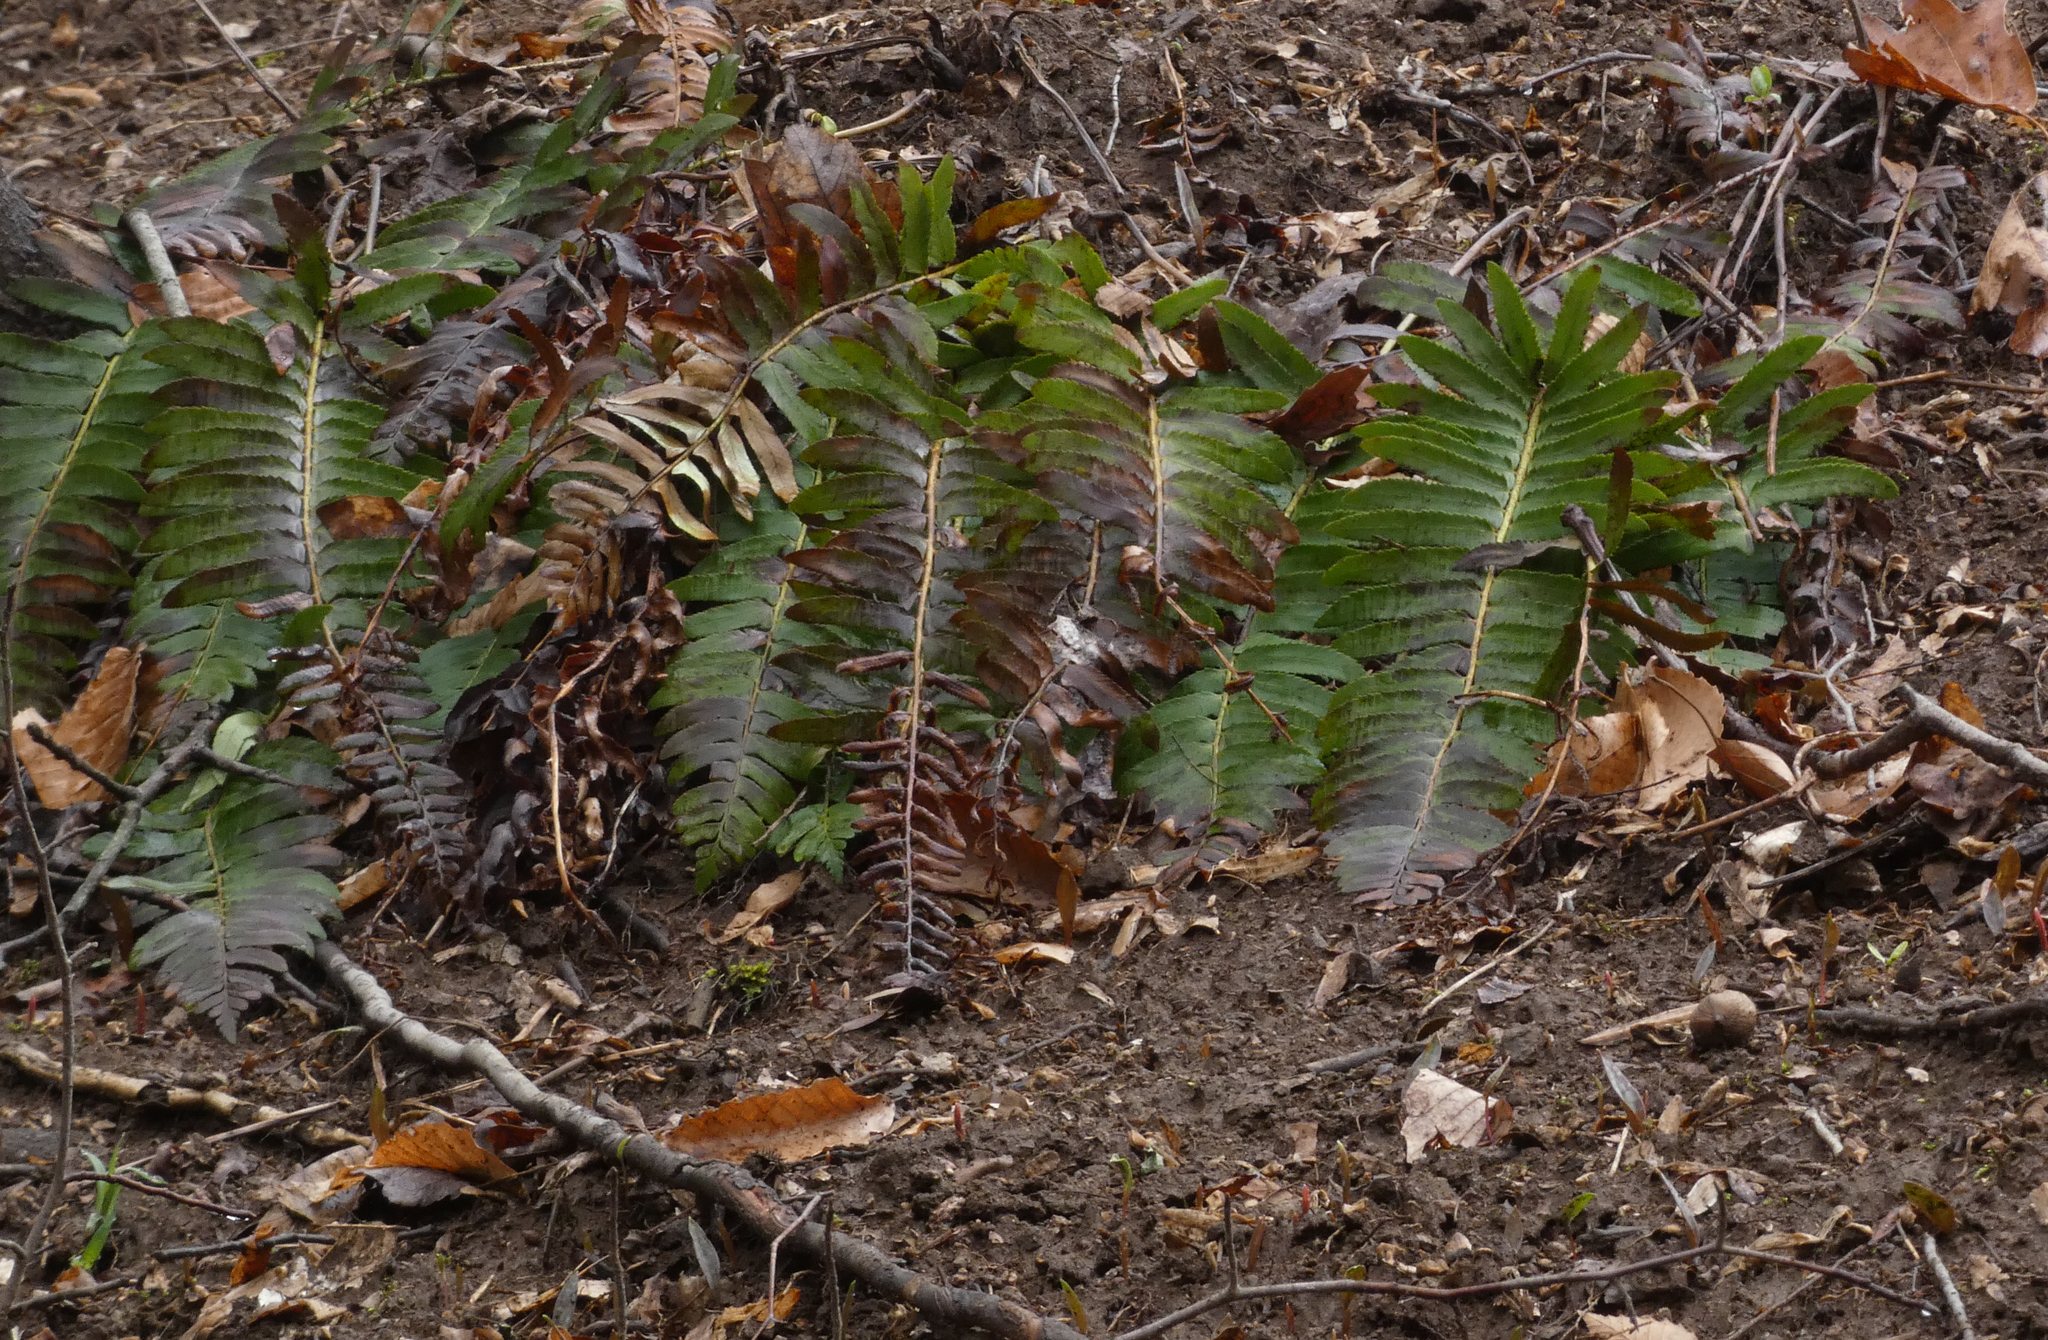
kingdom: Plantae
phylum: Tracheophyta
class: Polypodiopsida
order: Polypodiales
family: Dryopteridaceae
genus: Polystichum
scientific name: Polystichum acrostichoides
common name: Christmas fern
